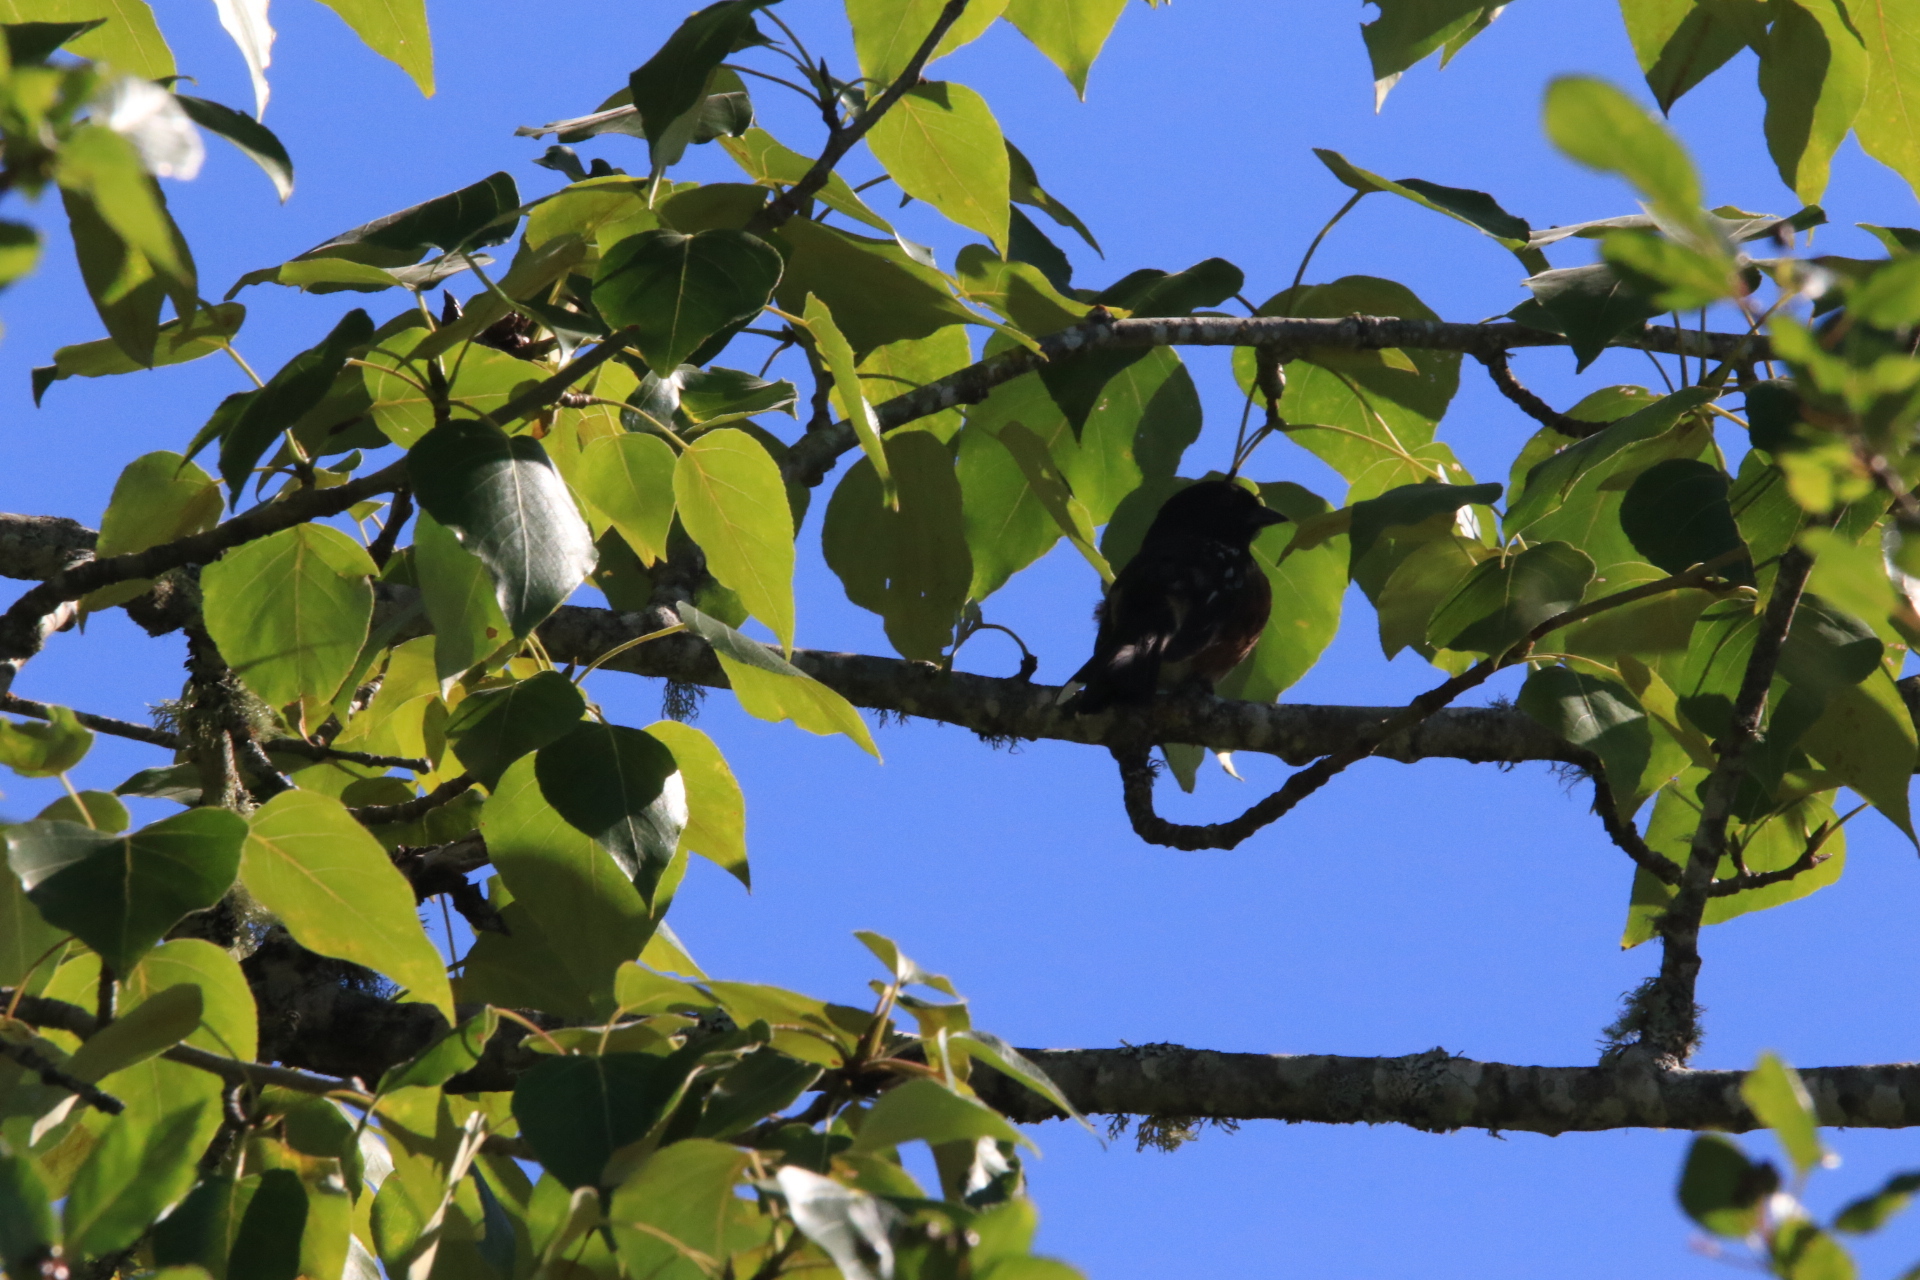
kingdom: Animalia
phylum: Chordata
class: Aves
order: Passeriformes
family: Passerellidae
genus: Pipilo
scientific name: Pipilo maculatus
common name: Spotted towhee
